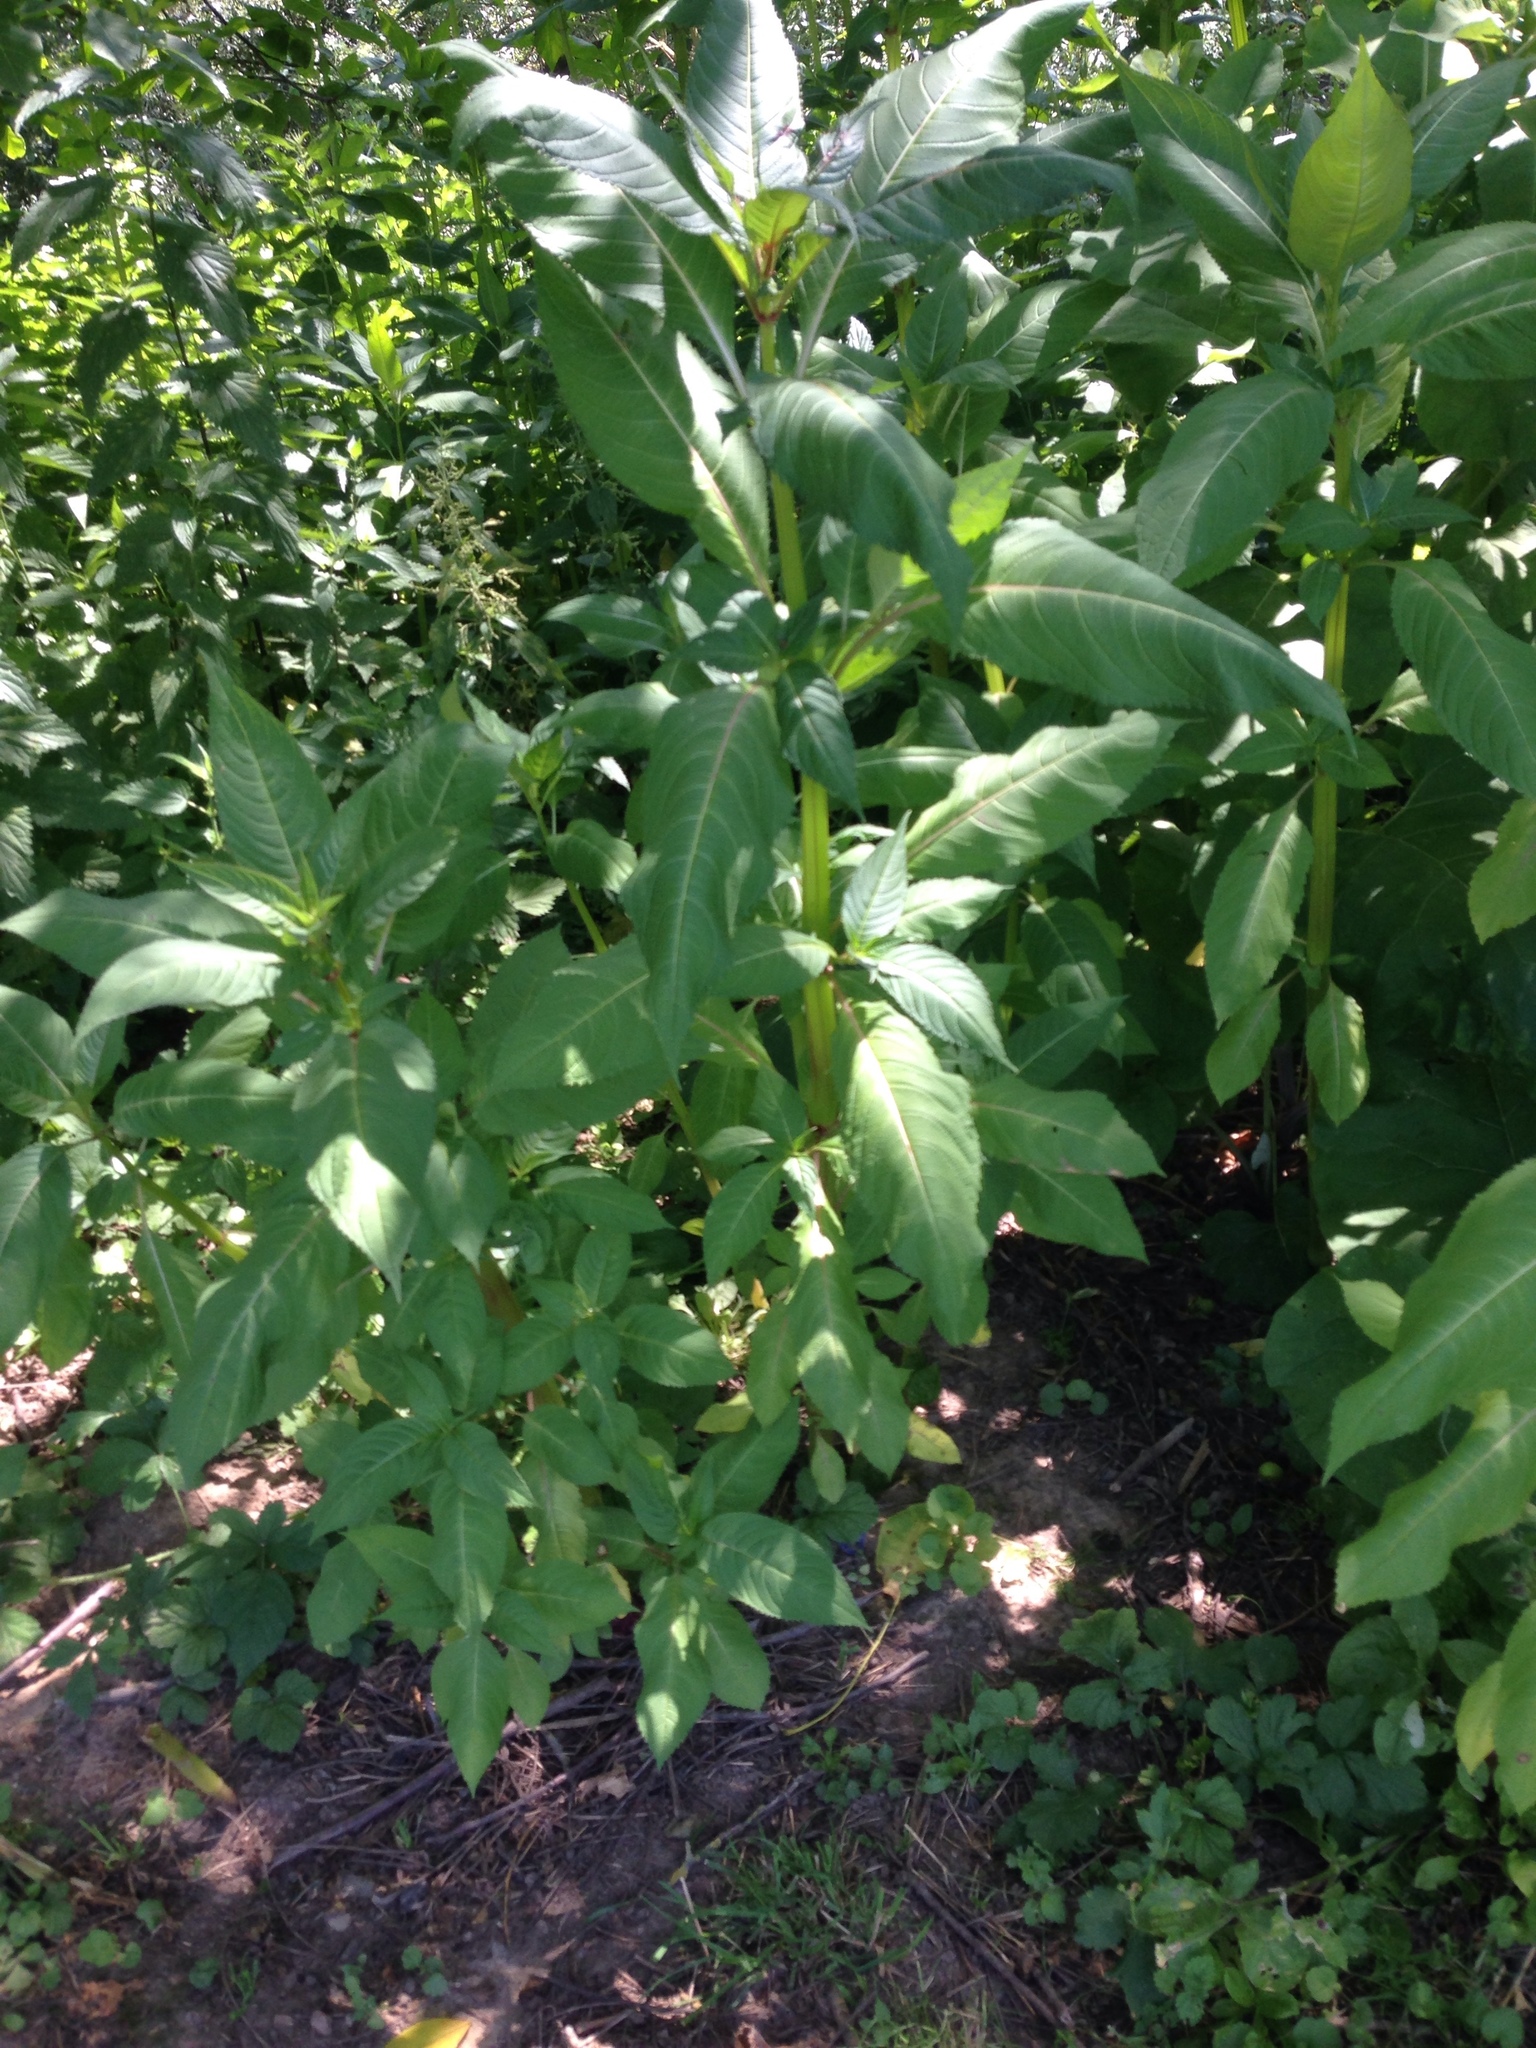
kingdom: Plantae
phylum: Tracheophyta
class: Magnoliopsida
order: Ericales
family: Balsaminaceae
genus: Impatiens
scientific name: Impatiens glandulifera
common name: Himalayan balsam
